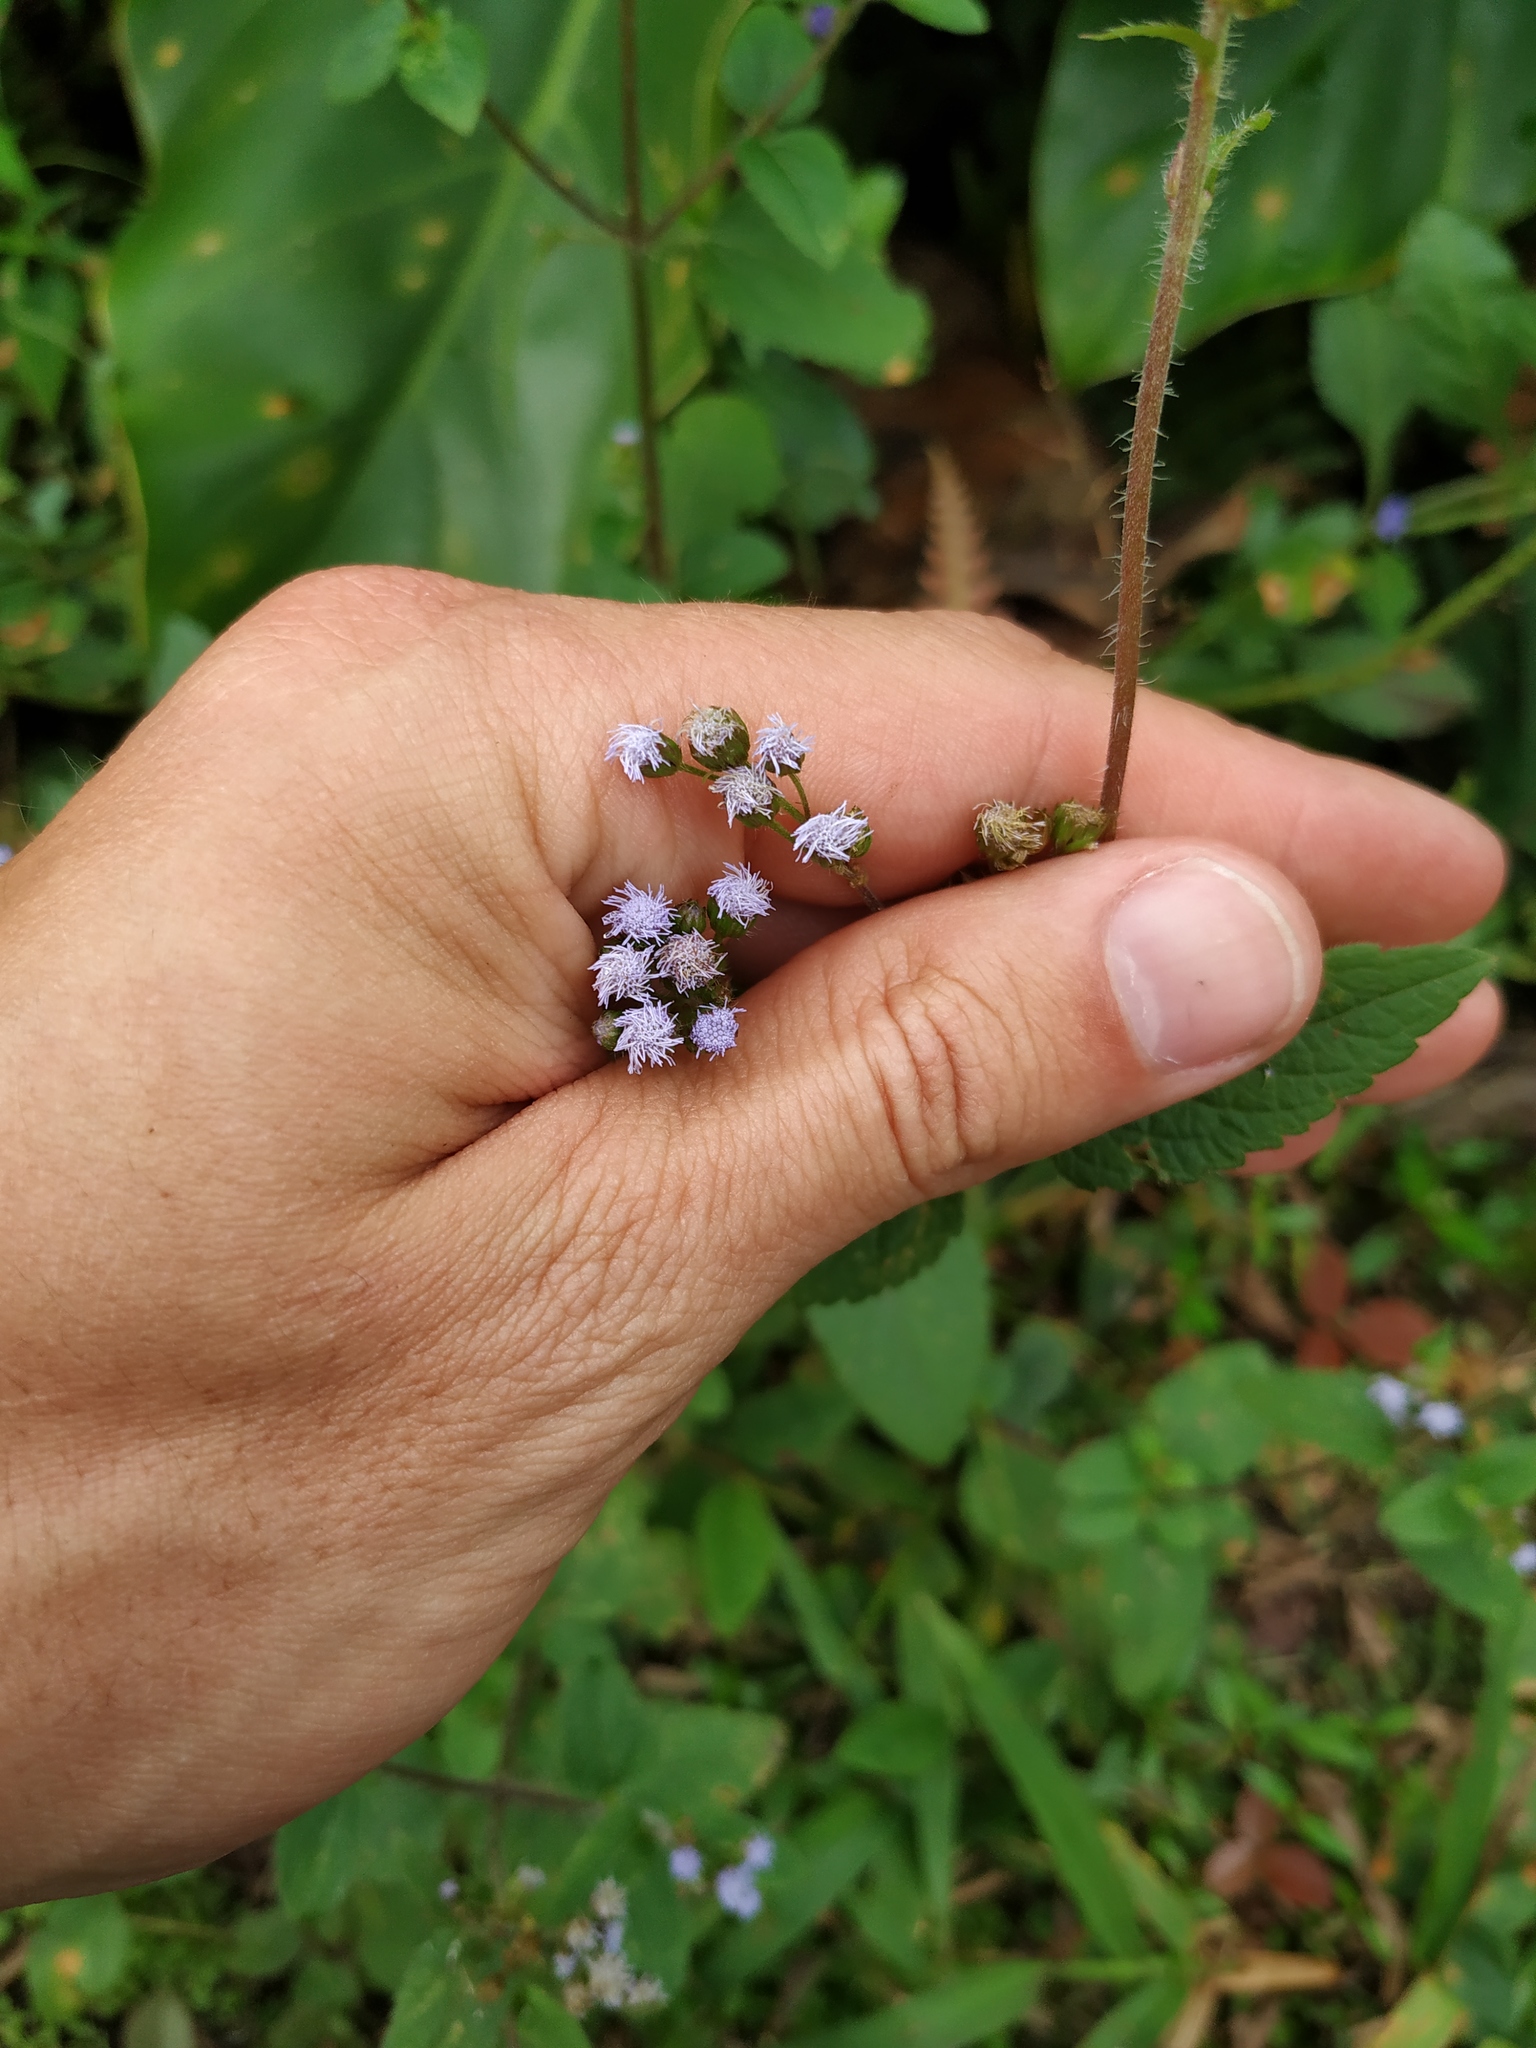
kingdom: Plantae
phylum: Tracheophyta
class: Magnoliopsida
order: Asterales
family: Asteraceae
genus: Ageratum
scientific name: Ageratum conyzoides
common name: Tropical whiteweed
